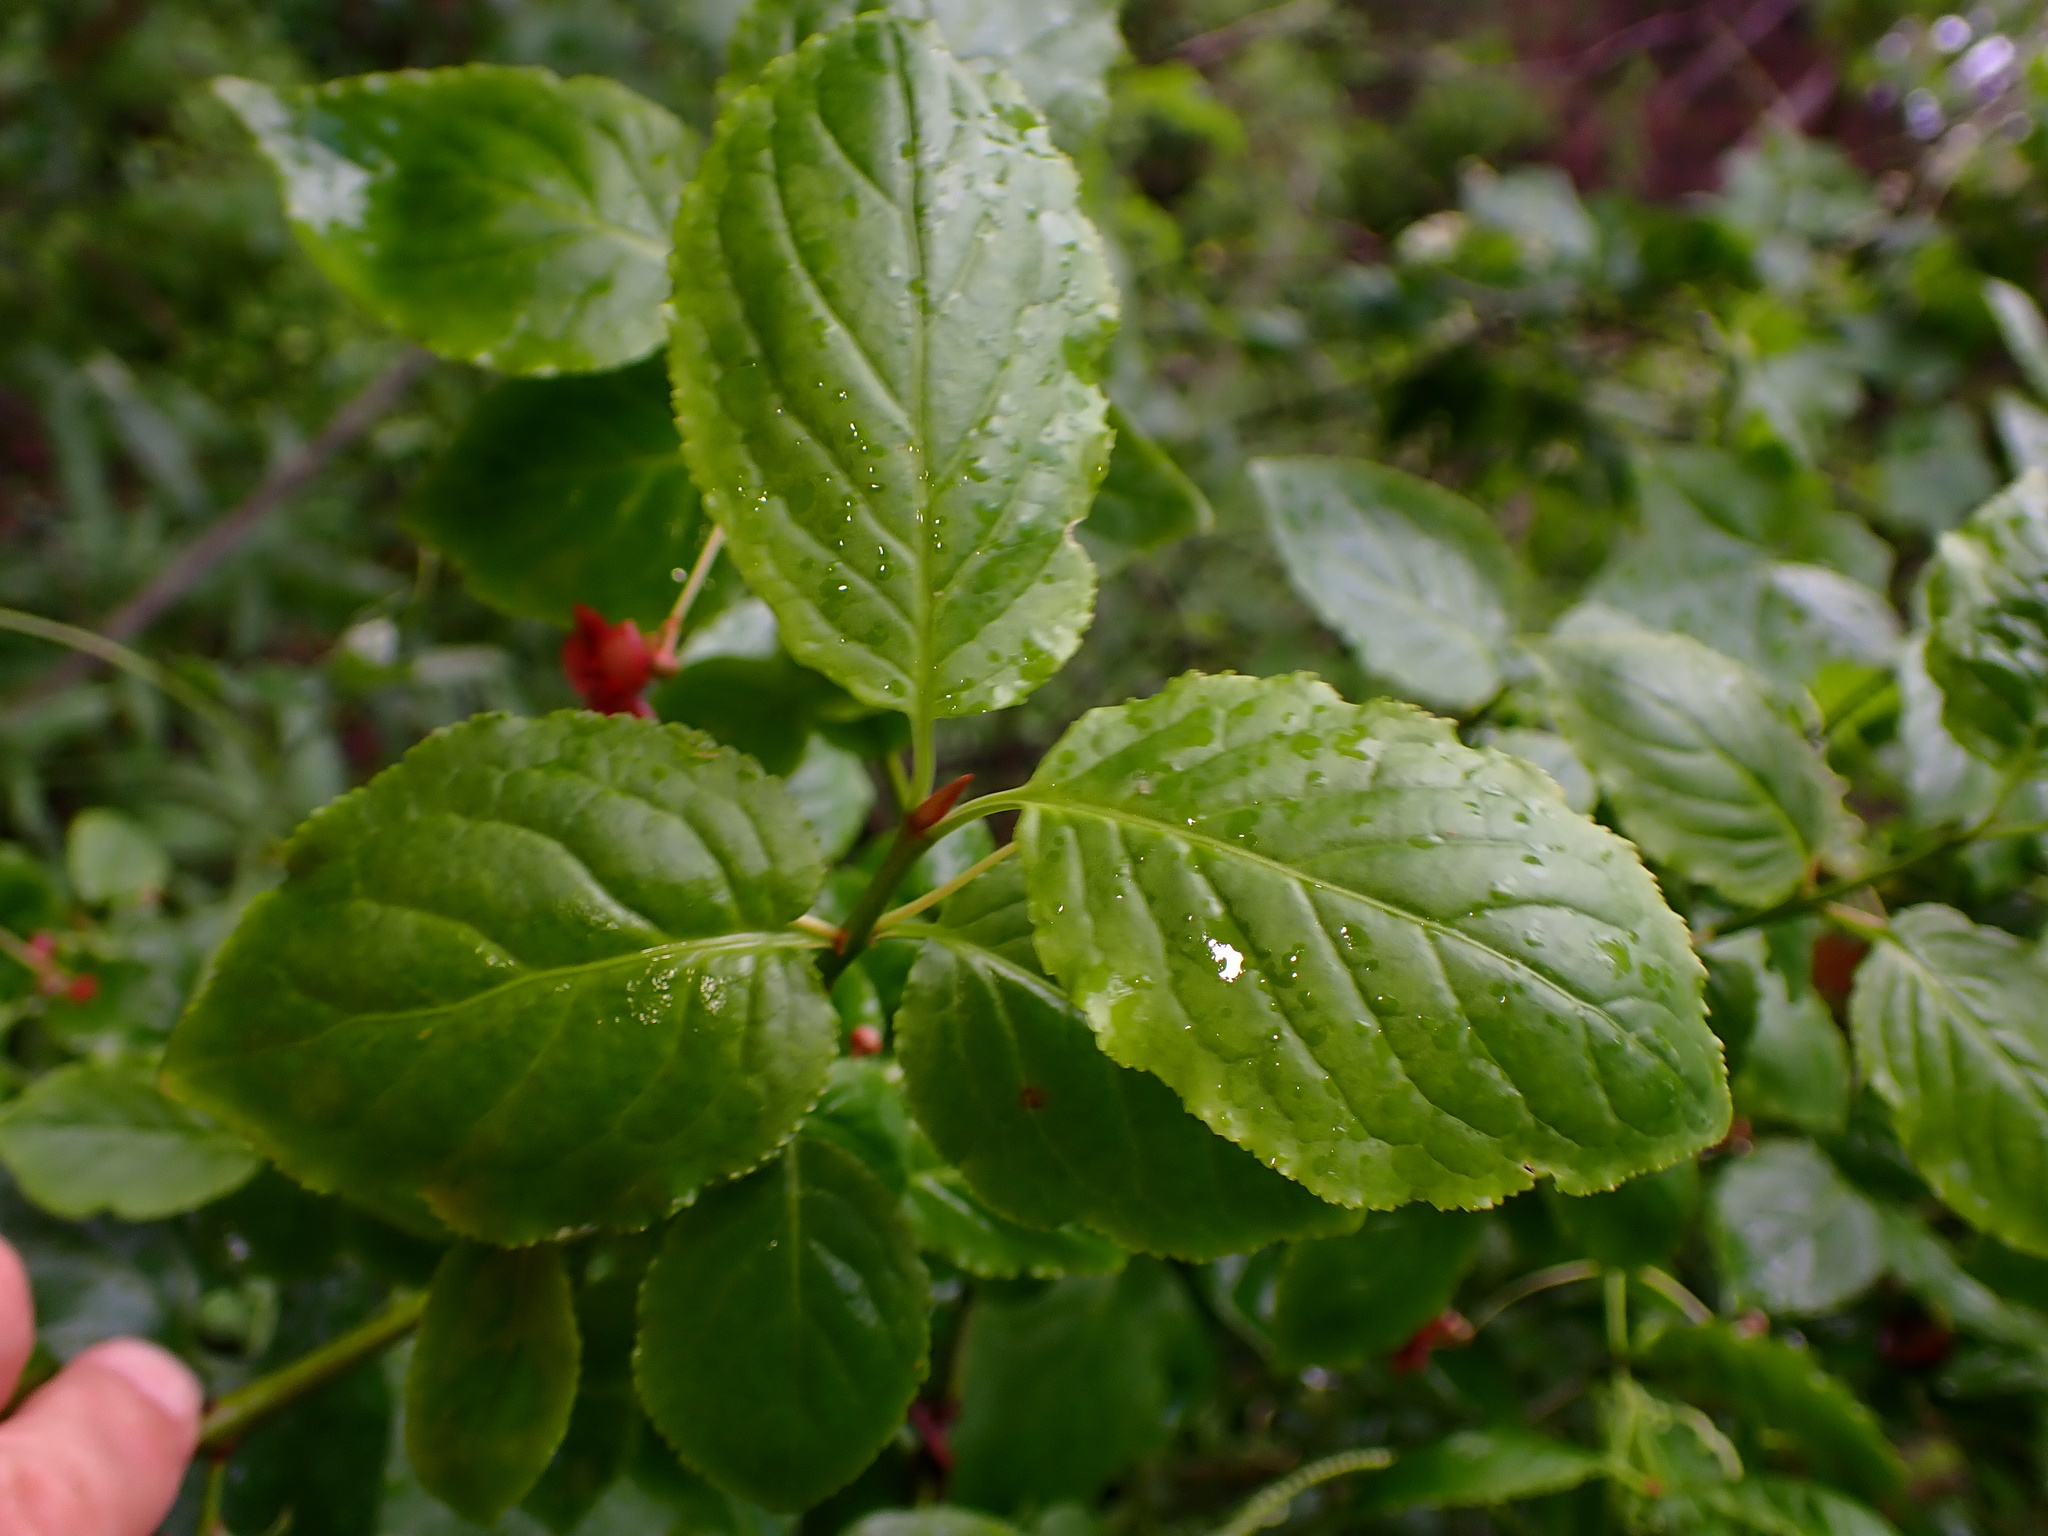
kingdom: Plantae
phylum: Tracheophyta
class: Magnoliopsida
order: Celastrales
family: Celastraceae
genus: Euonymus
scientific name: Euonymus occidentalis
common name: Western burningbush
